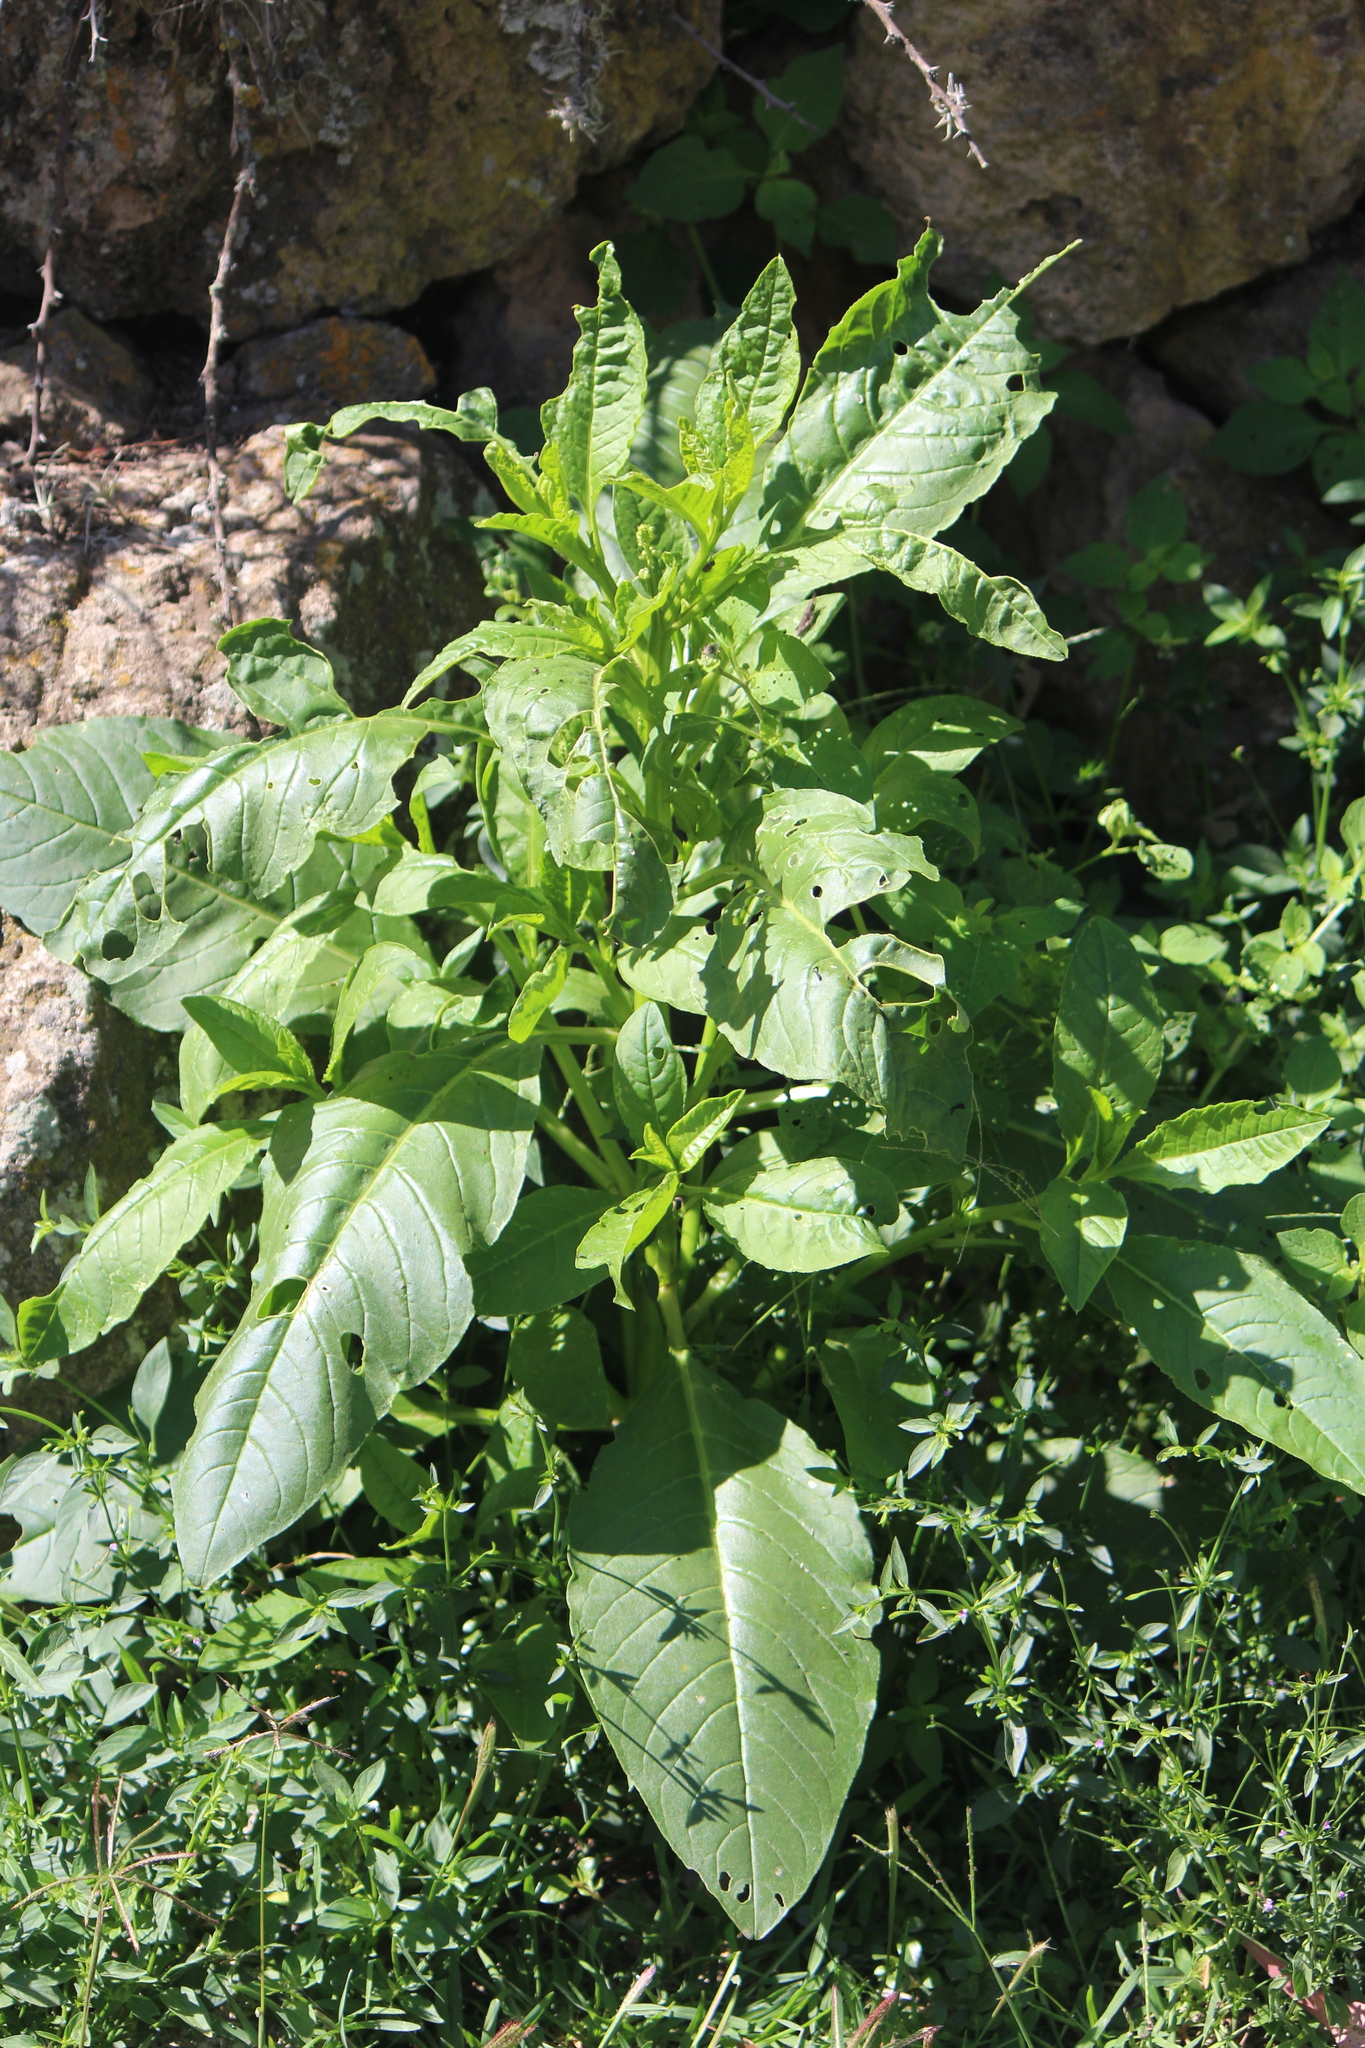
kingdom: Plantae
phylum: Tracheophyta
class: Magnoliopsida
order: Caryophyllales
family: Phytolaccaceae
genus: Phytolacca
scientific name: Phytolacca icosandra
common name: Button pokeweed
